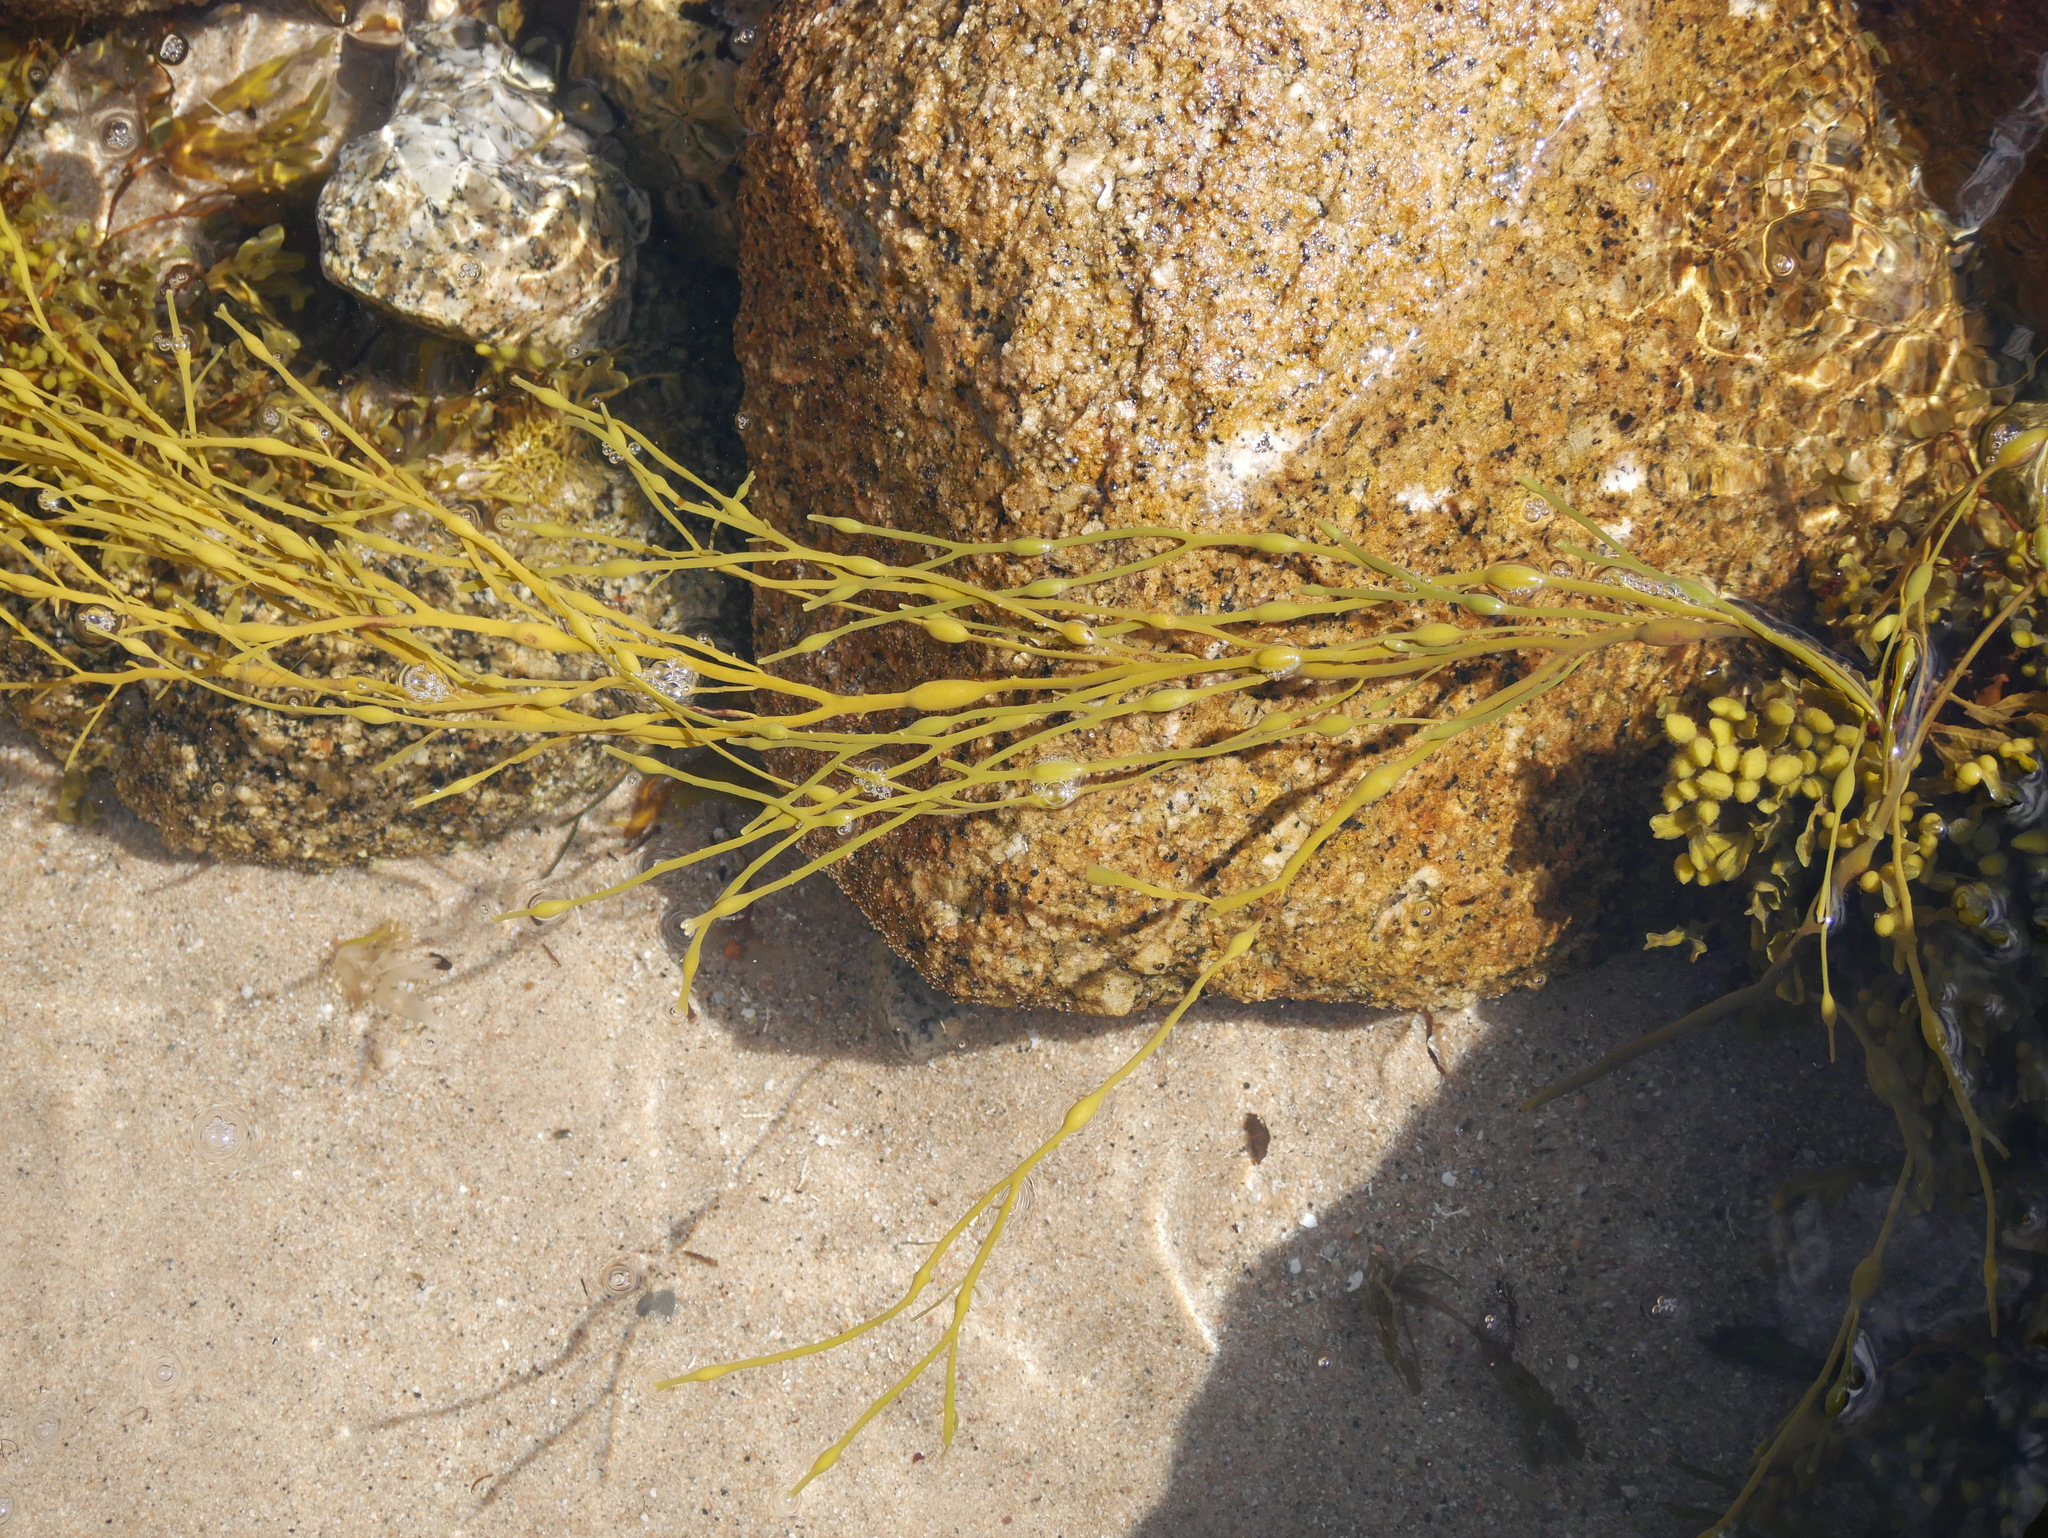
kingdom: Chromista
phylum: Ochrophyta
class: Phaeophyceae
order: Fucales
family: Fucaceae
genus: Ascophyllum
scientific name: Ascophyllum nodosum
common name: Knotted wrack
